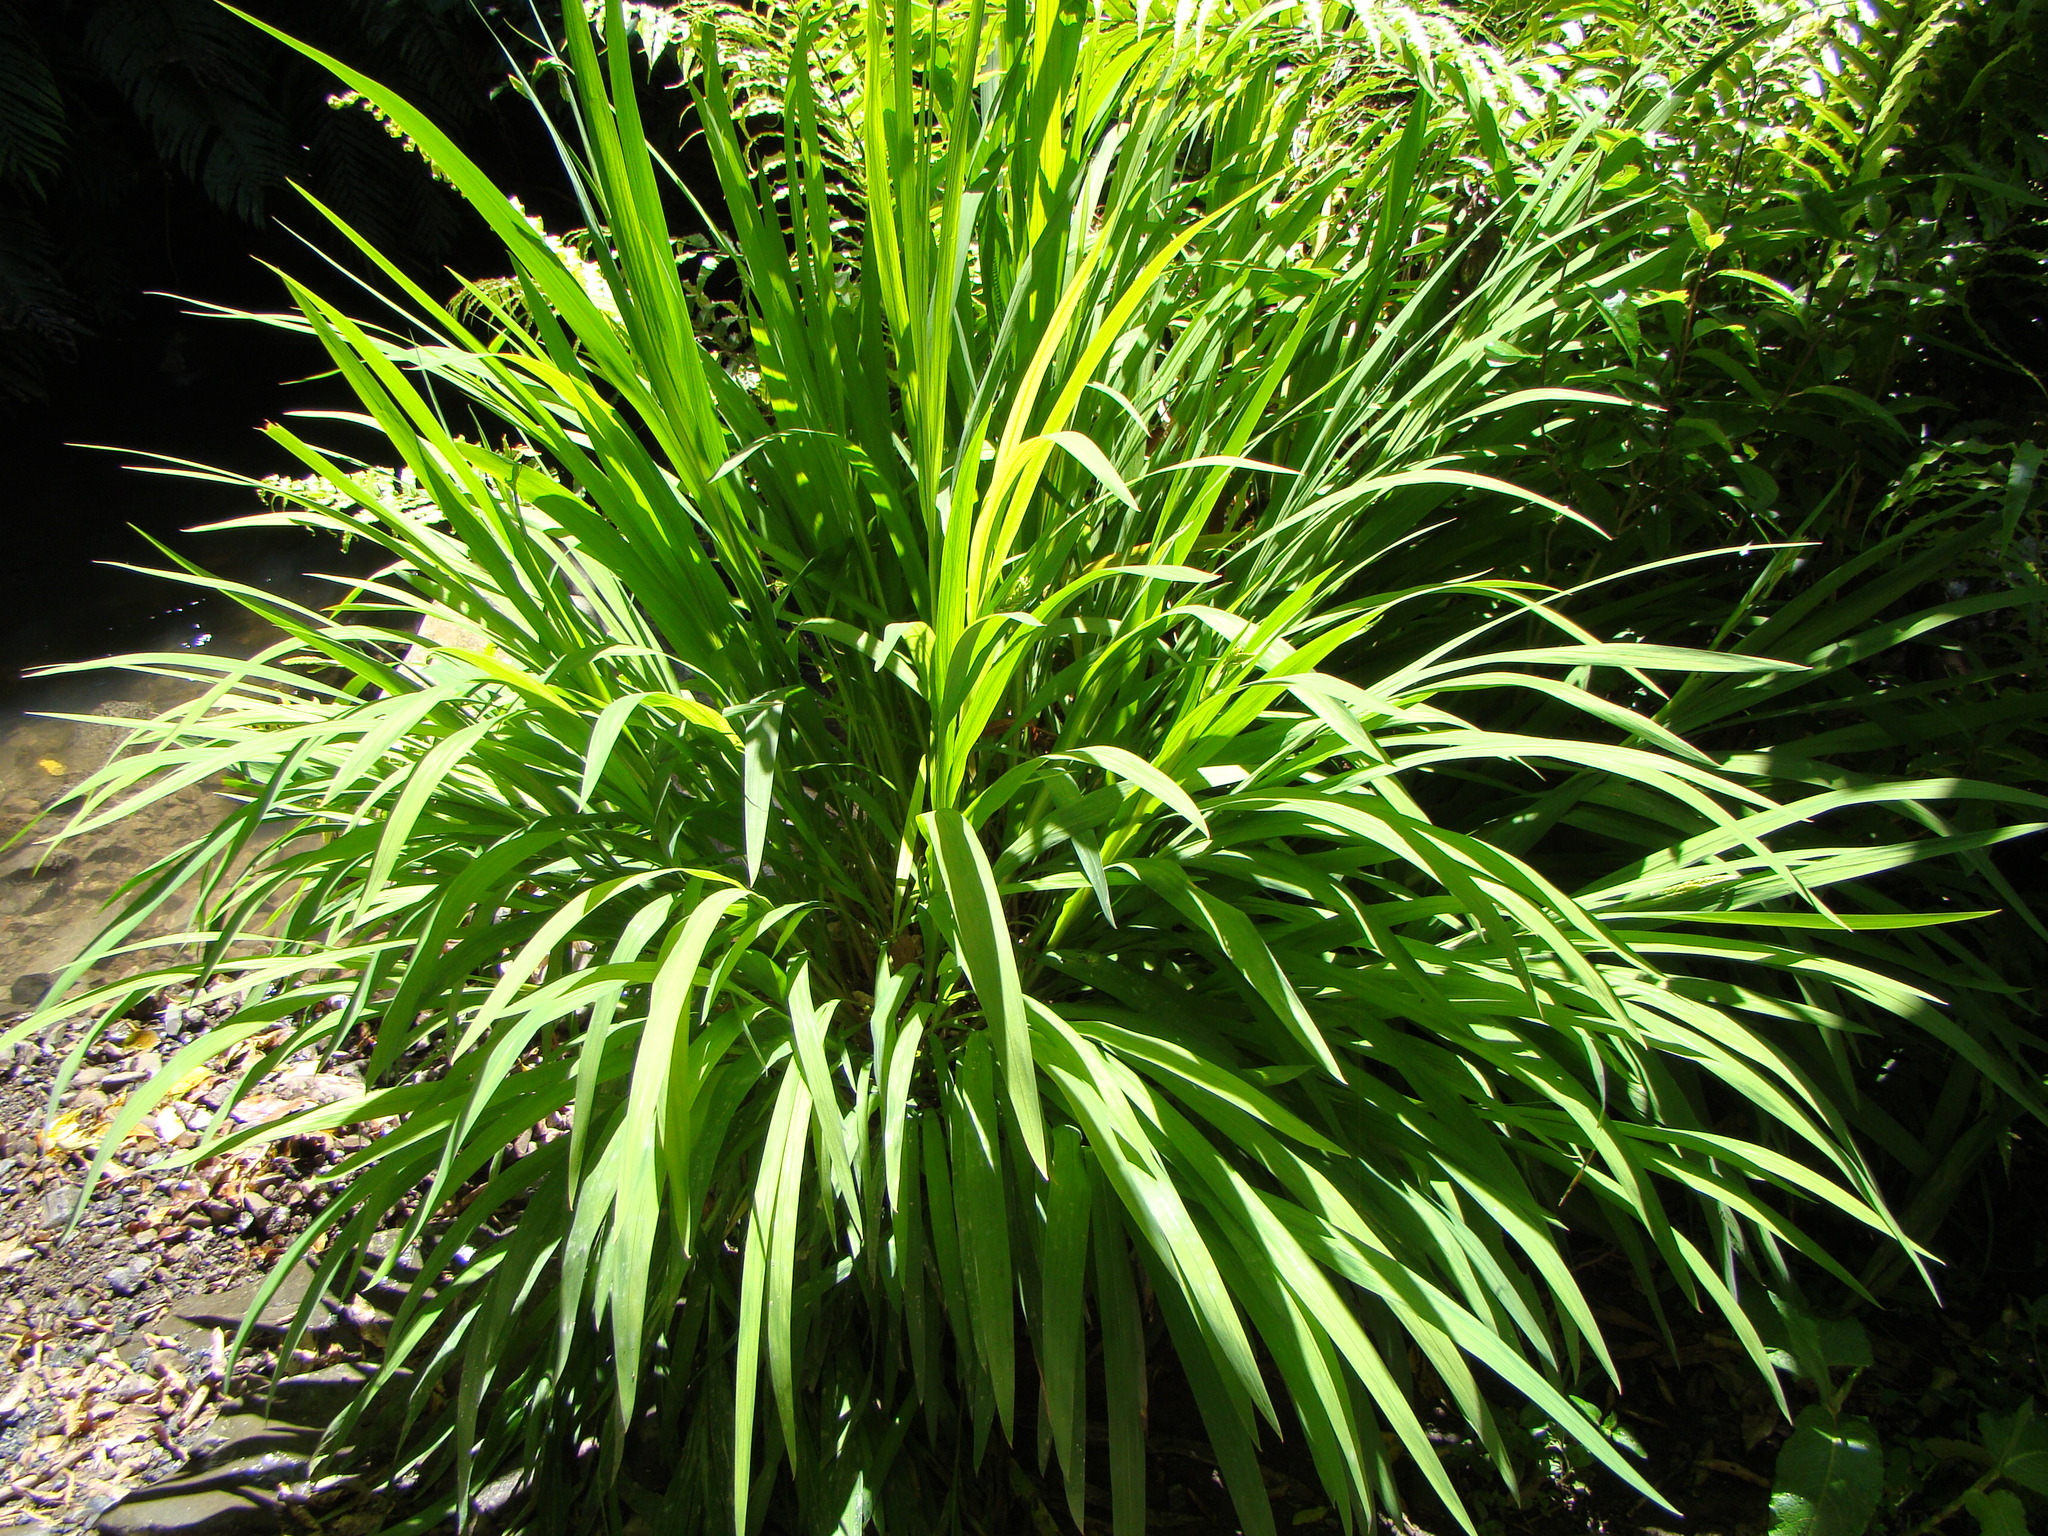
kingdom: Plantae
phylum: Tracheophyta
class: Liliopsida
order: Asparagales
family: Iridaceae
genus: Crocosmia
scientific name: Crocosmia crocosmiiflora
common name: Montbretia
